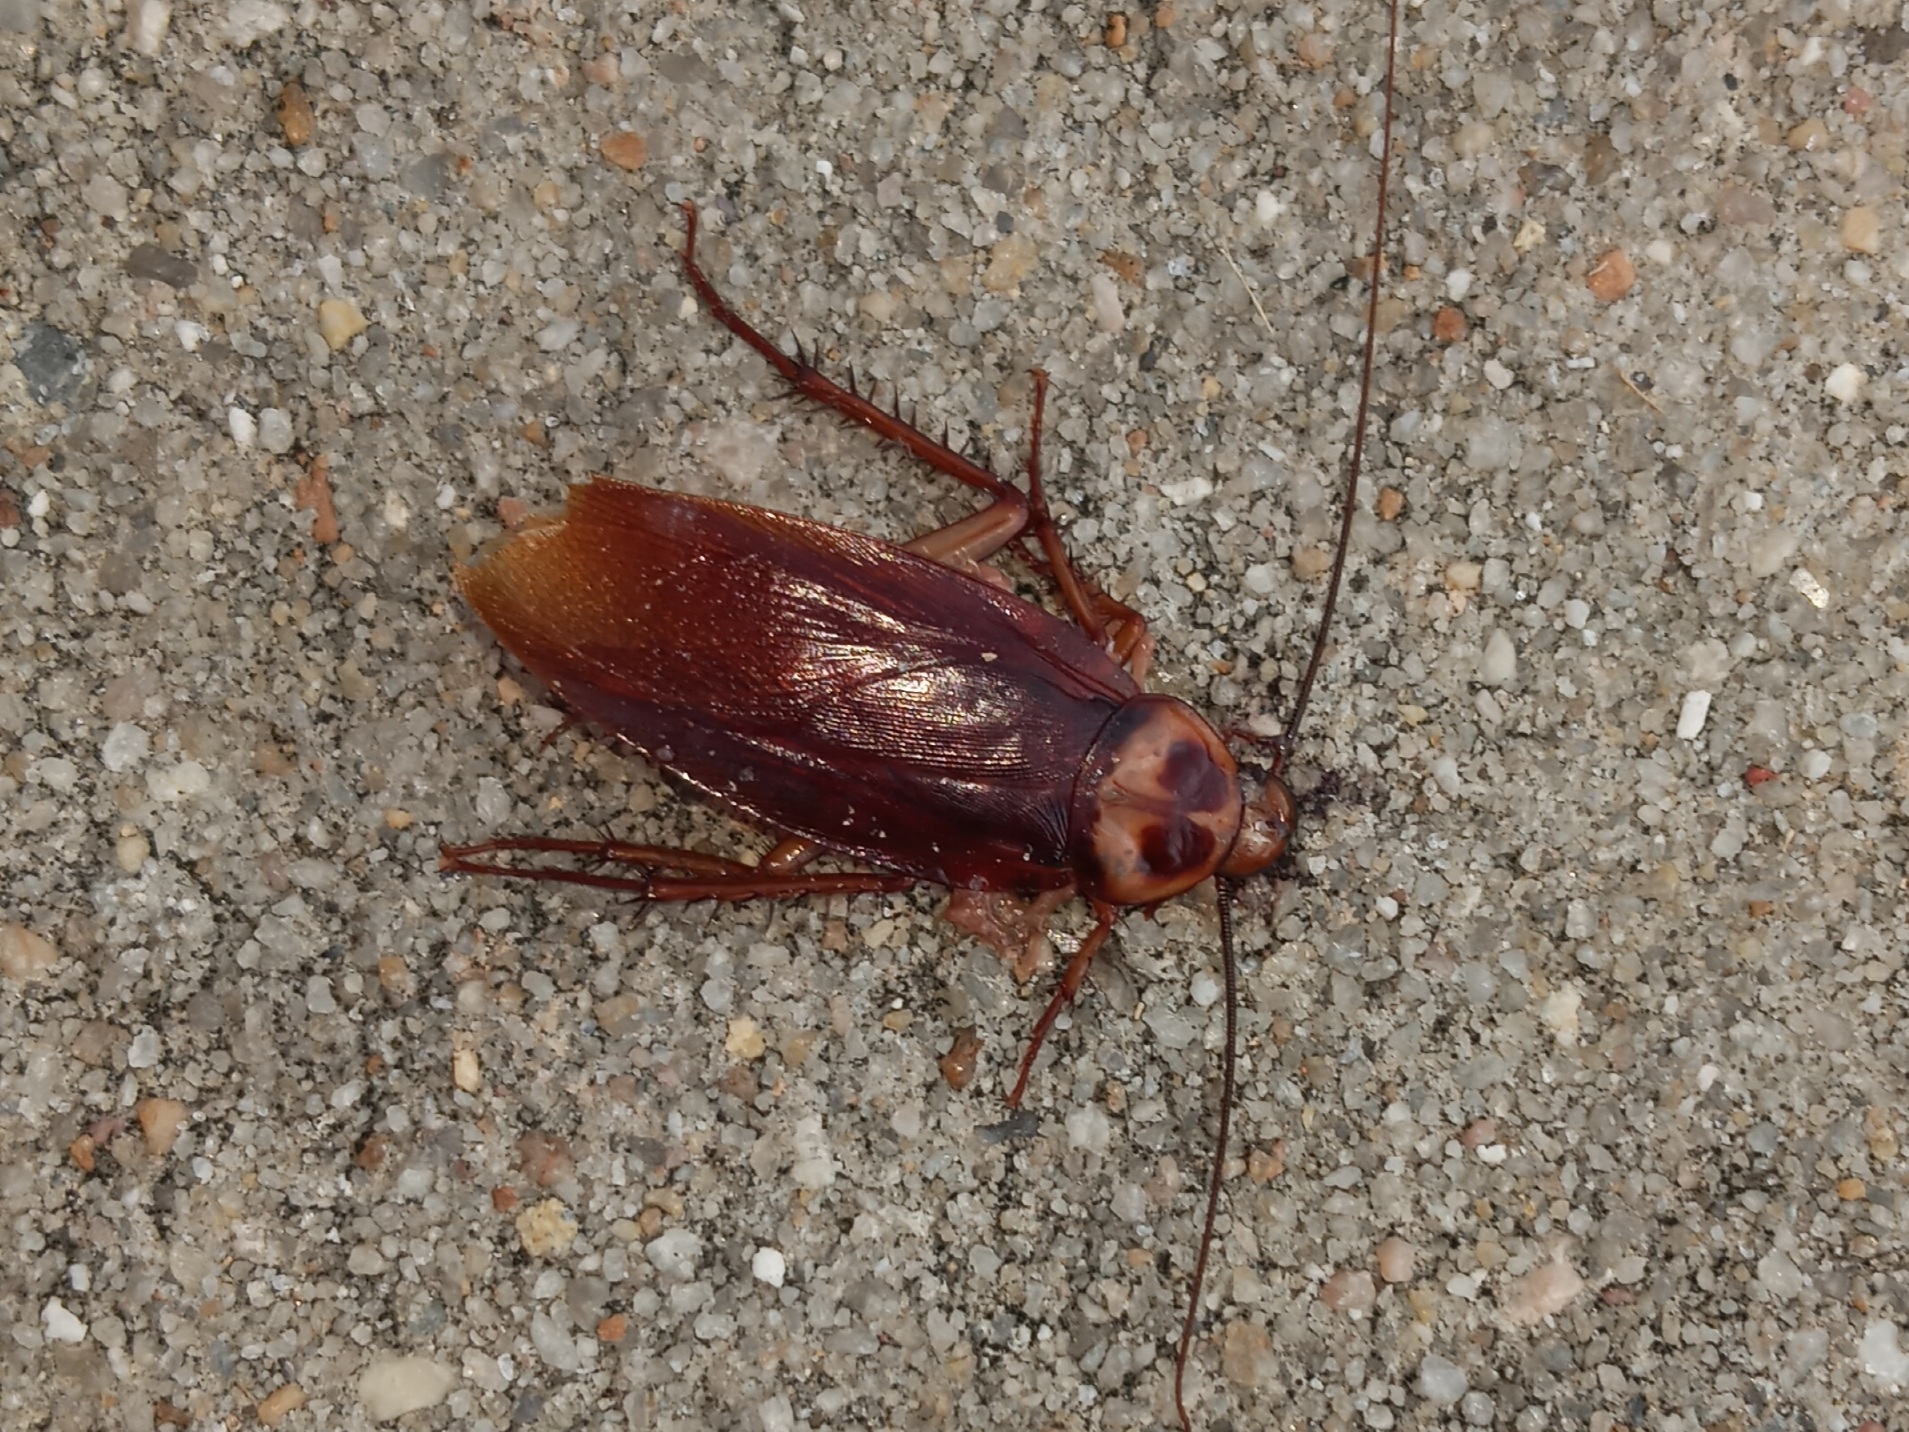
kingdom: Animalia
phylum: Arthropoda
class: Insecta
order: Blattodea
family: Blattidae
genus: Periplaneta
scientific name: Periplaneta americana
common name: American cockroach
